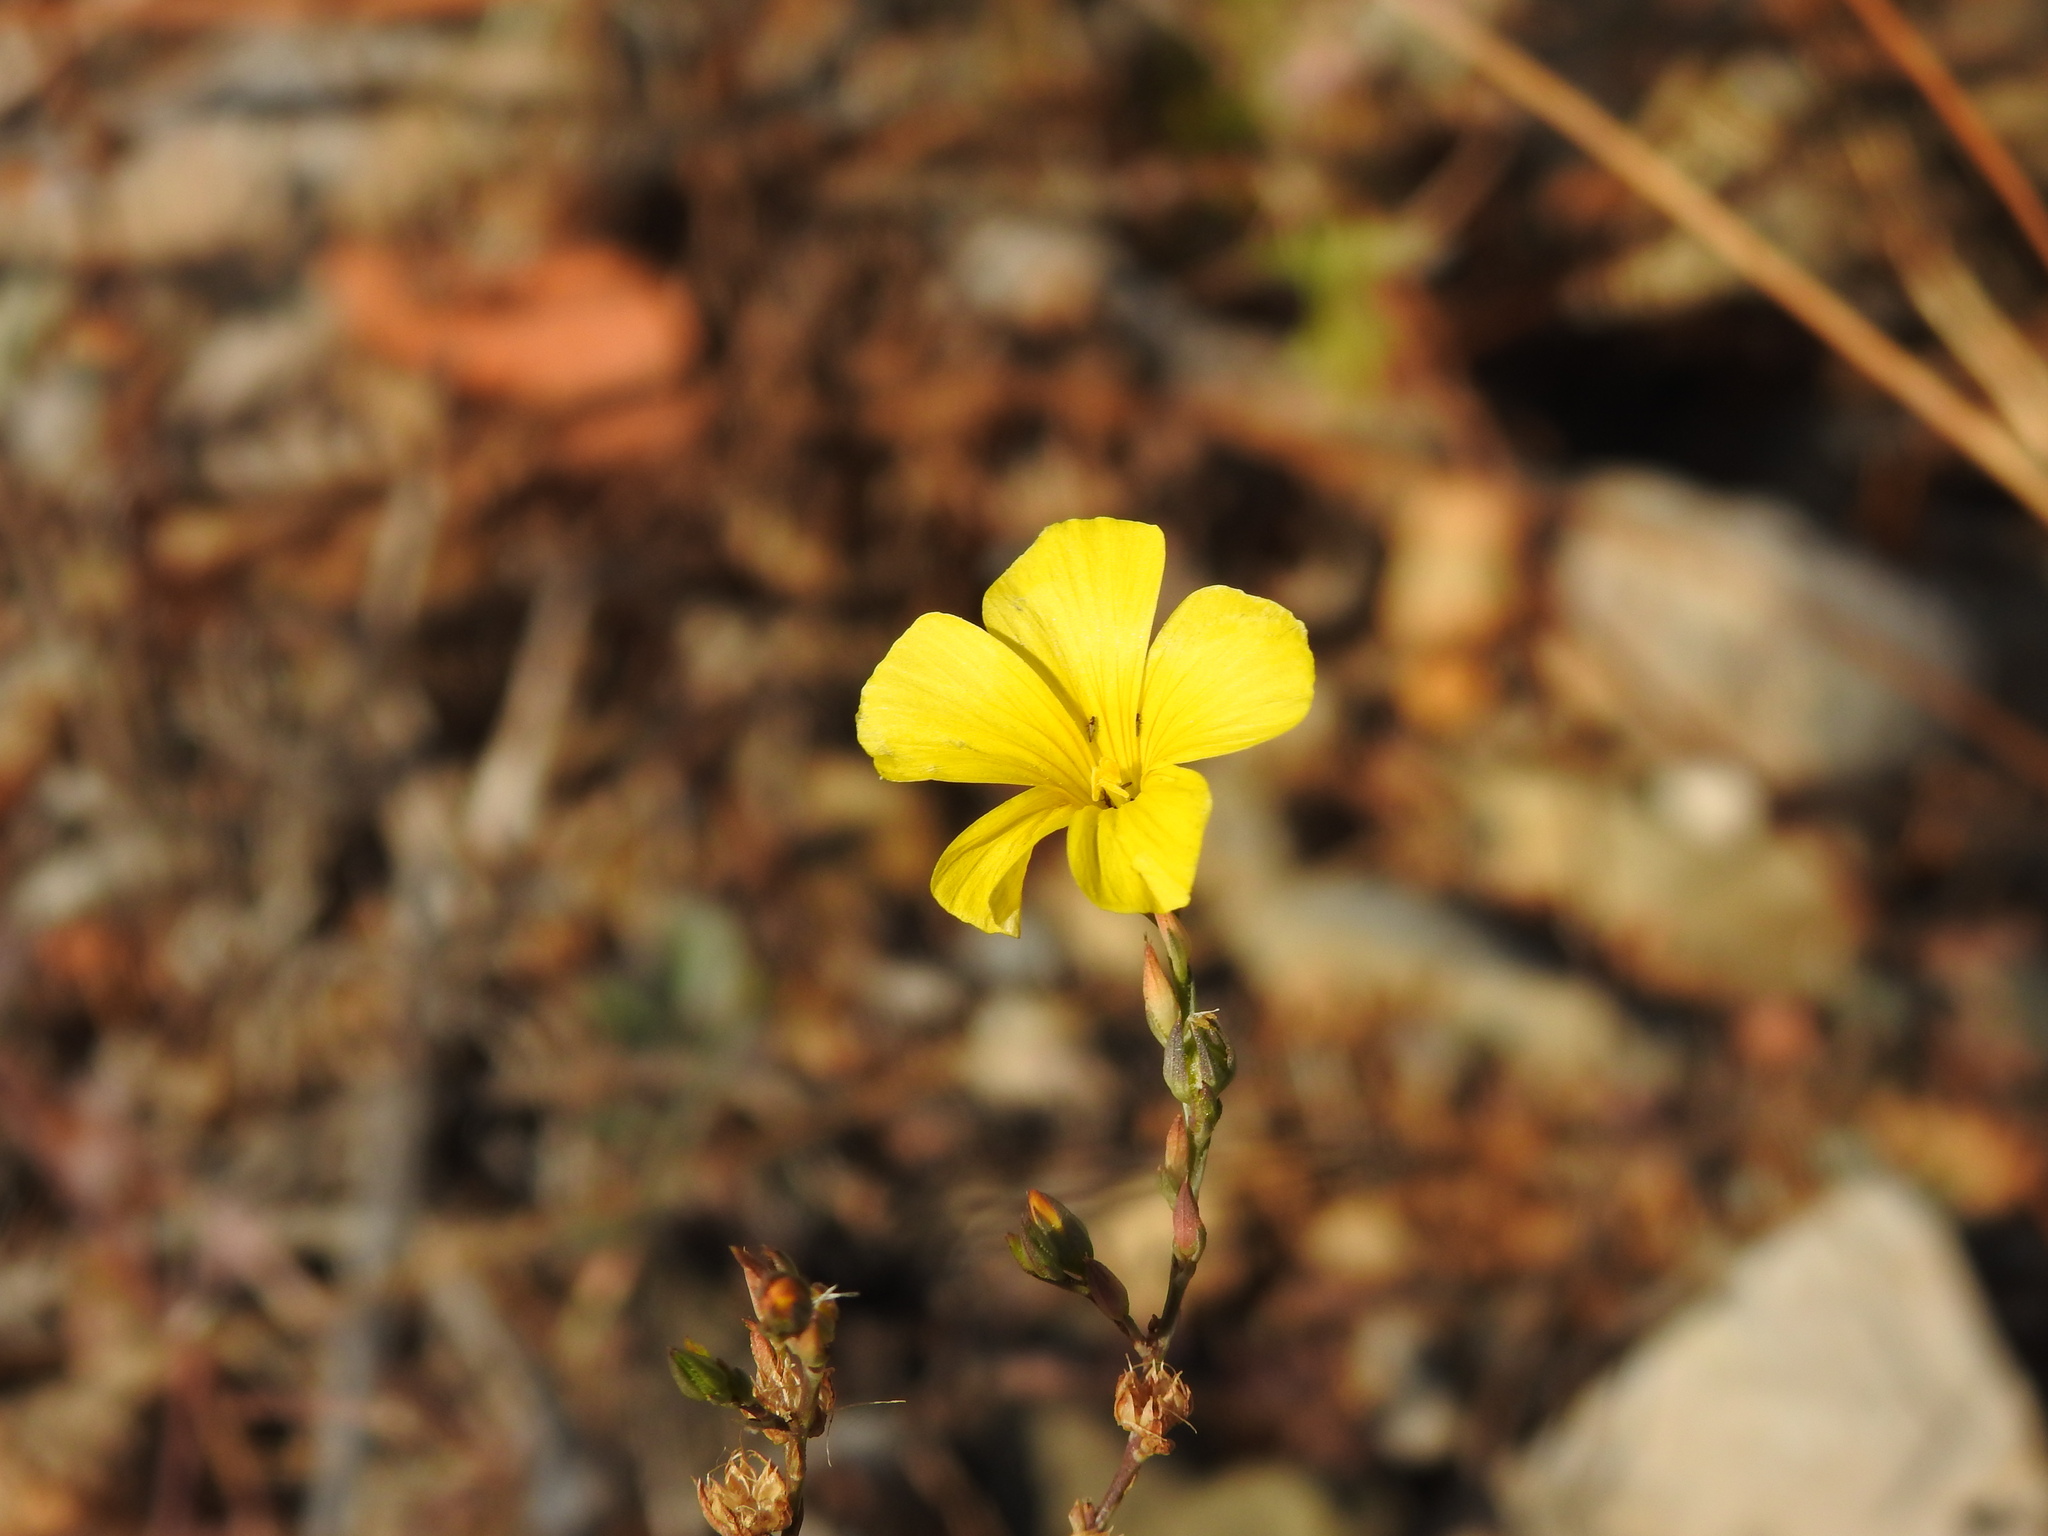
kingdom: Plantae
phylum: Tracheophyta
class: Magnoliopsida
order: Malpighiales
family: Linaceae
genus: Linum
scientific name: Linum tenue
